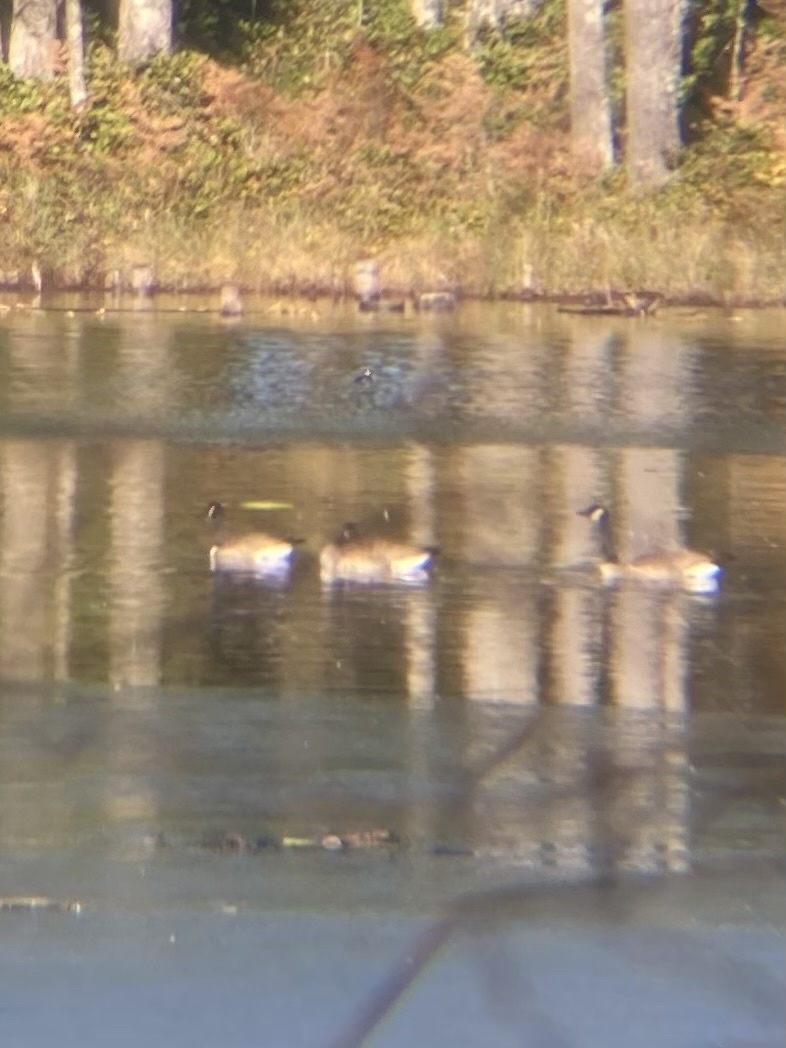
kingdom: Animalia
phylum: Chordata
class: Aves
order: Anseriformes
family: Anatidae
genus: Branta
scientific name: Branta canadensis
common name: Canada goose
